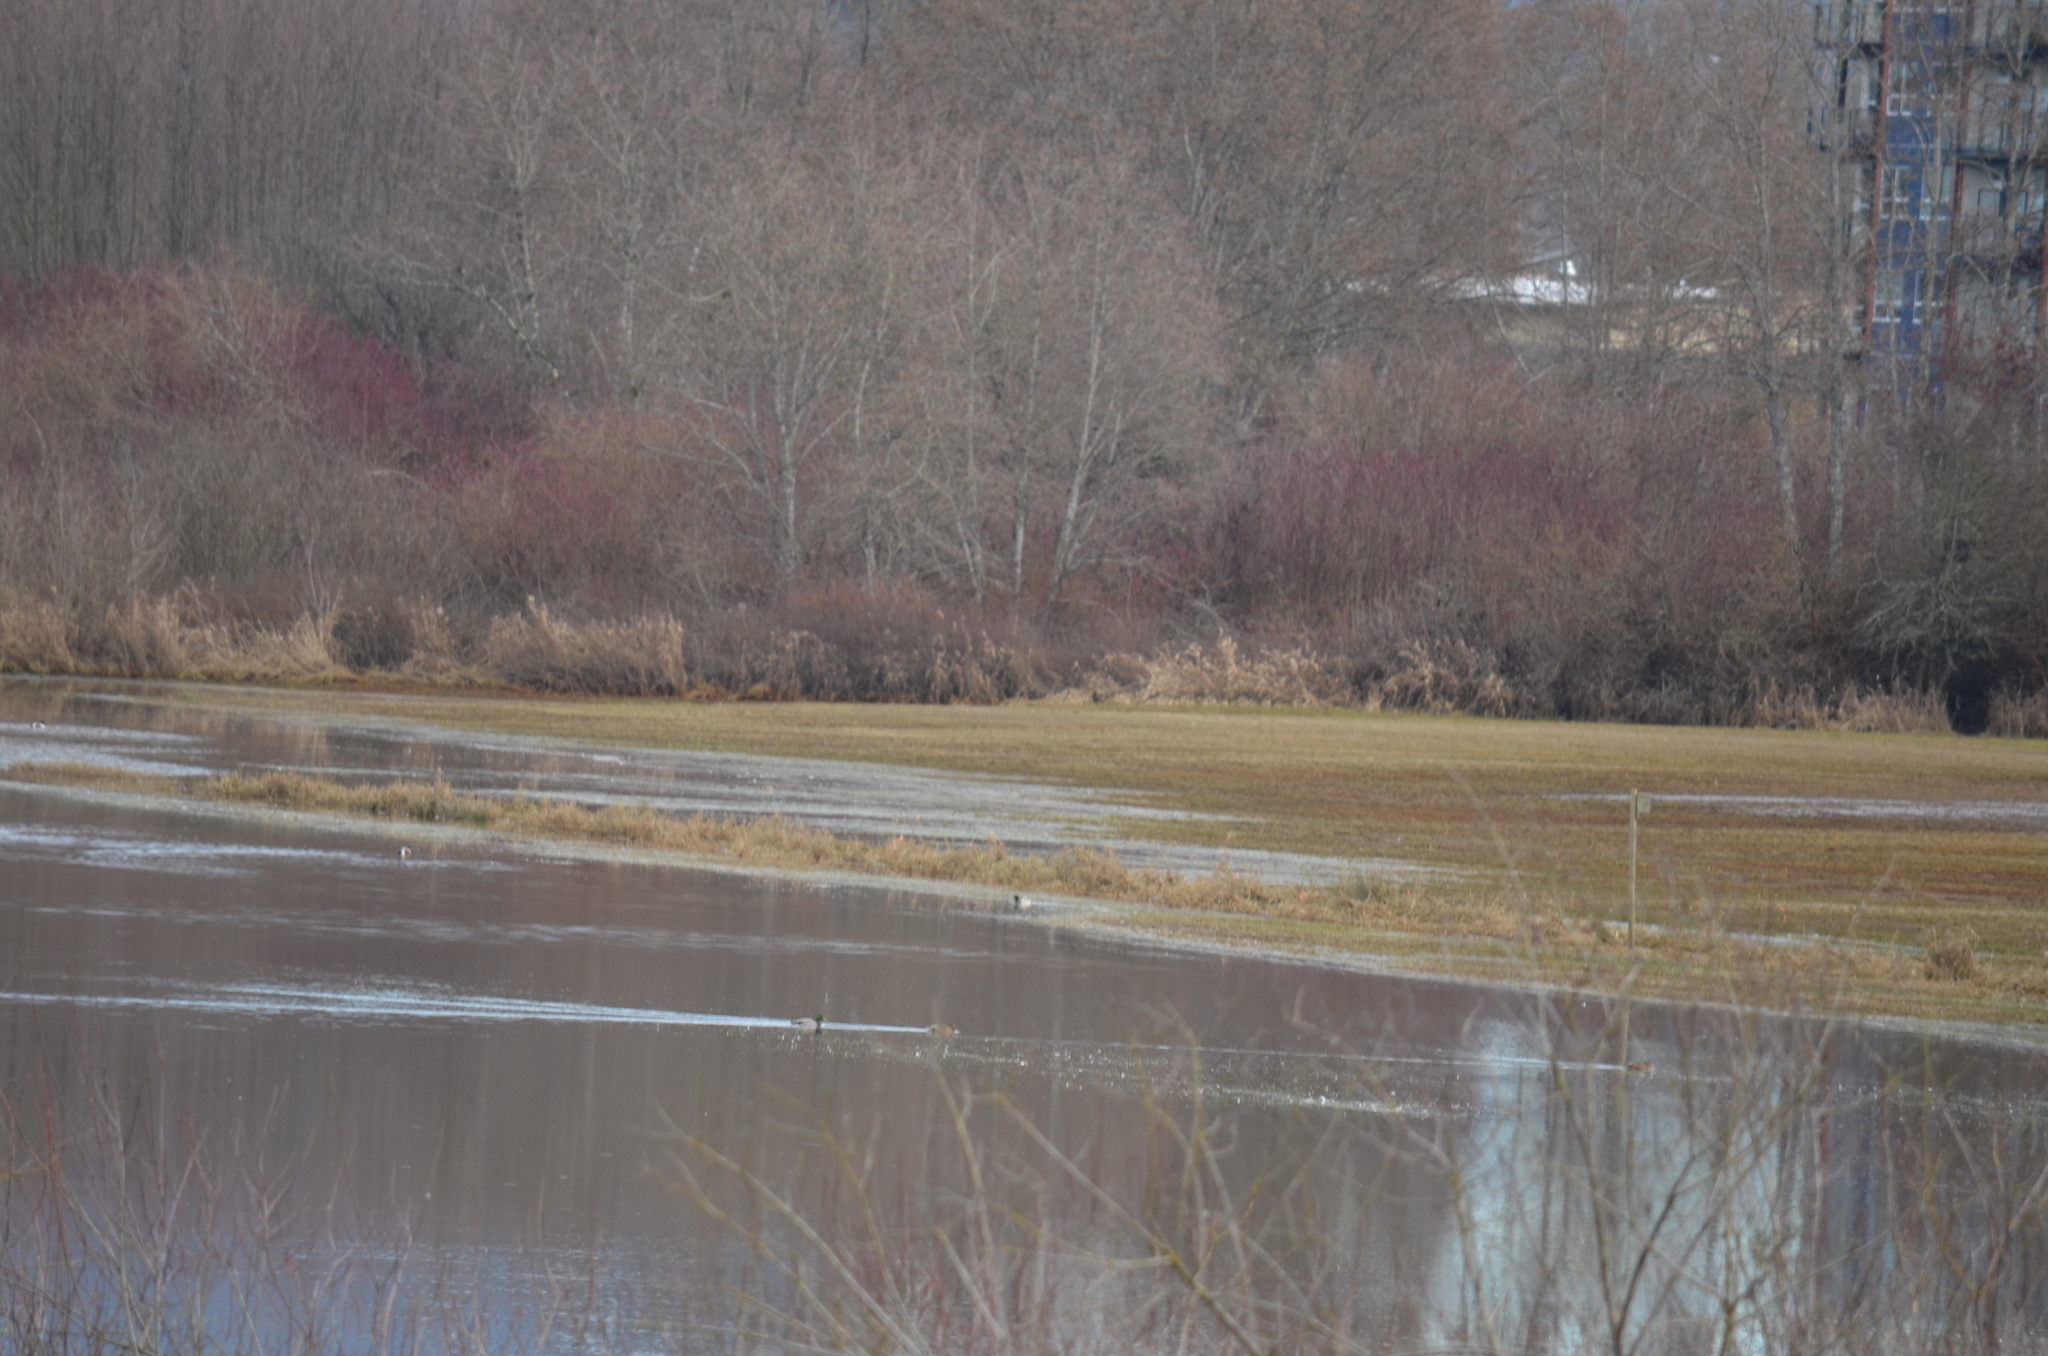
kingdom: Animalia
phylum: Chordata
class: Aves
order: Anseriformes
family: Anatidae
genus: Anas
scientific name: Anas platyrhynchos
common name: Mallard
